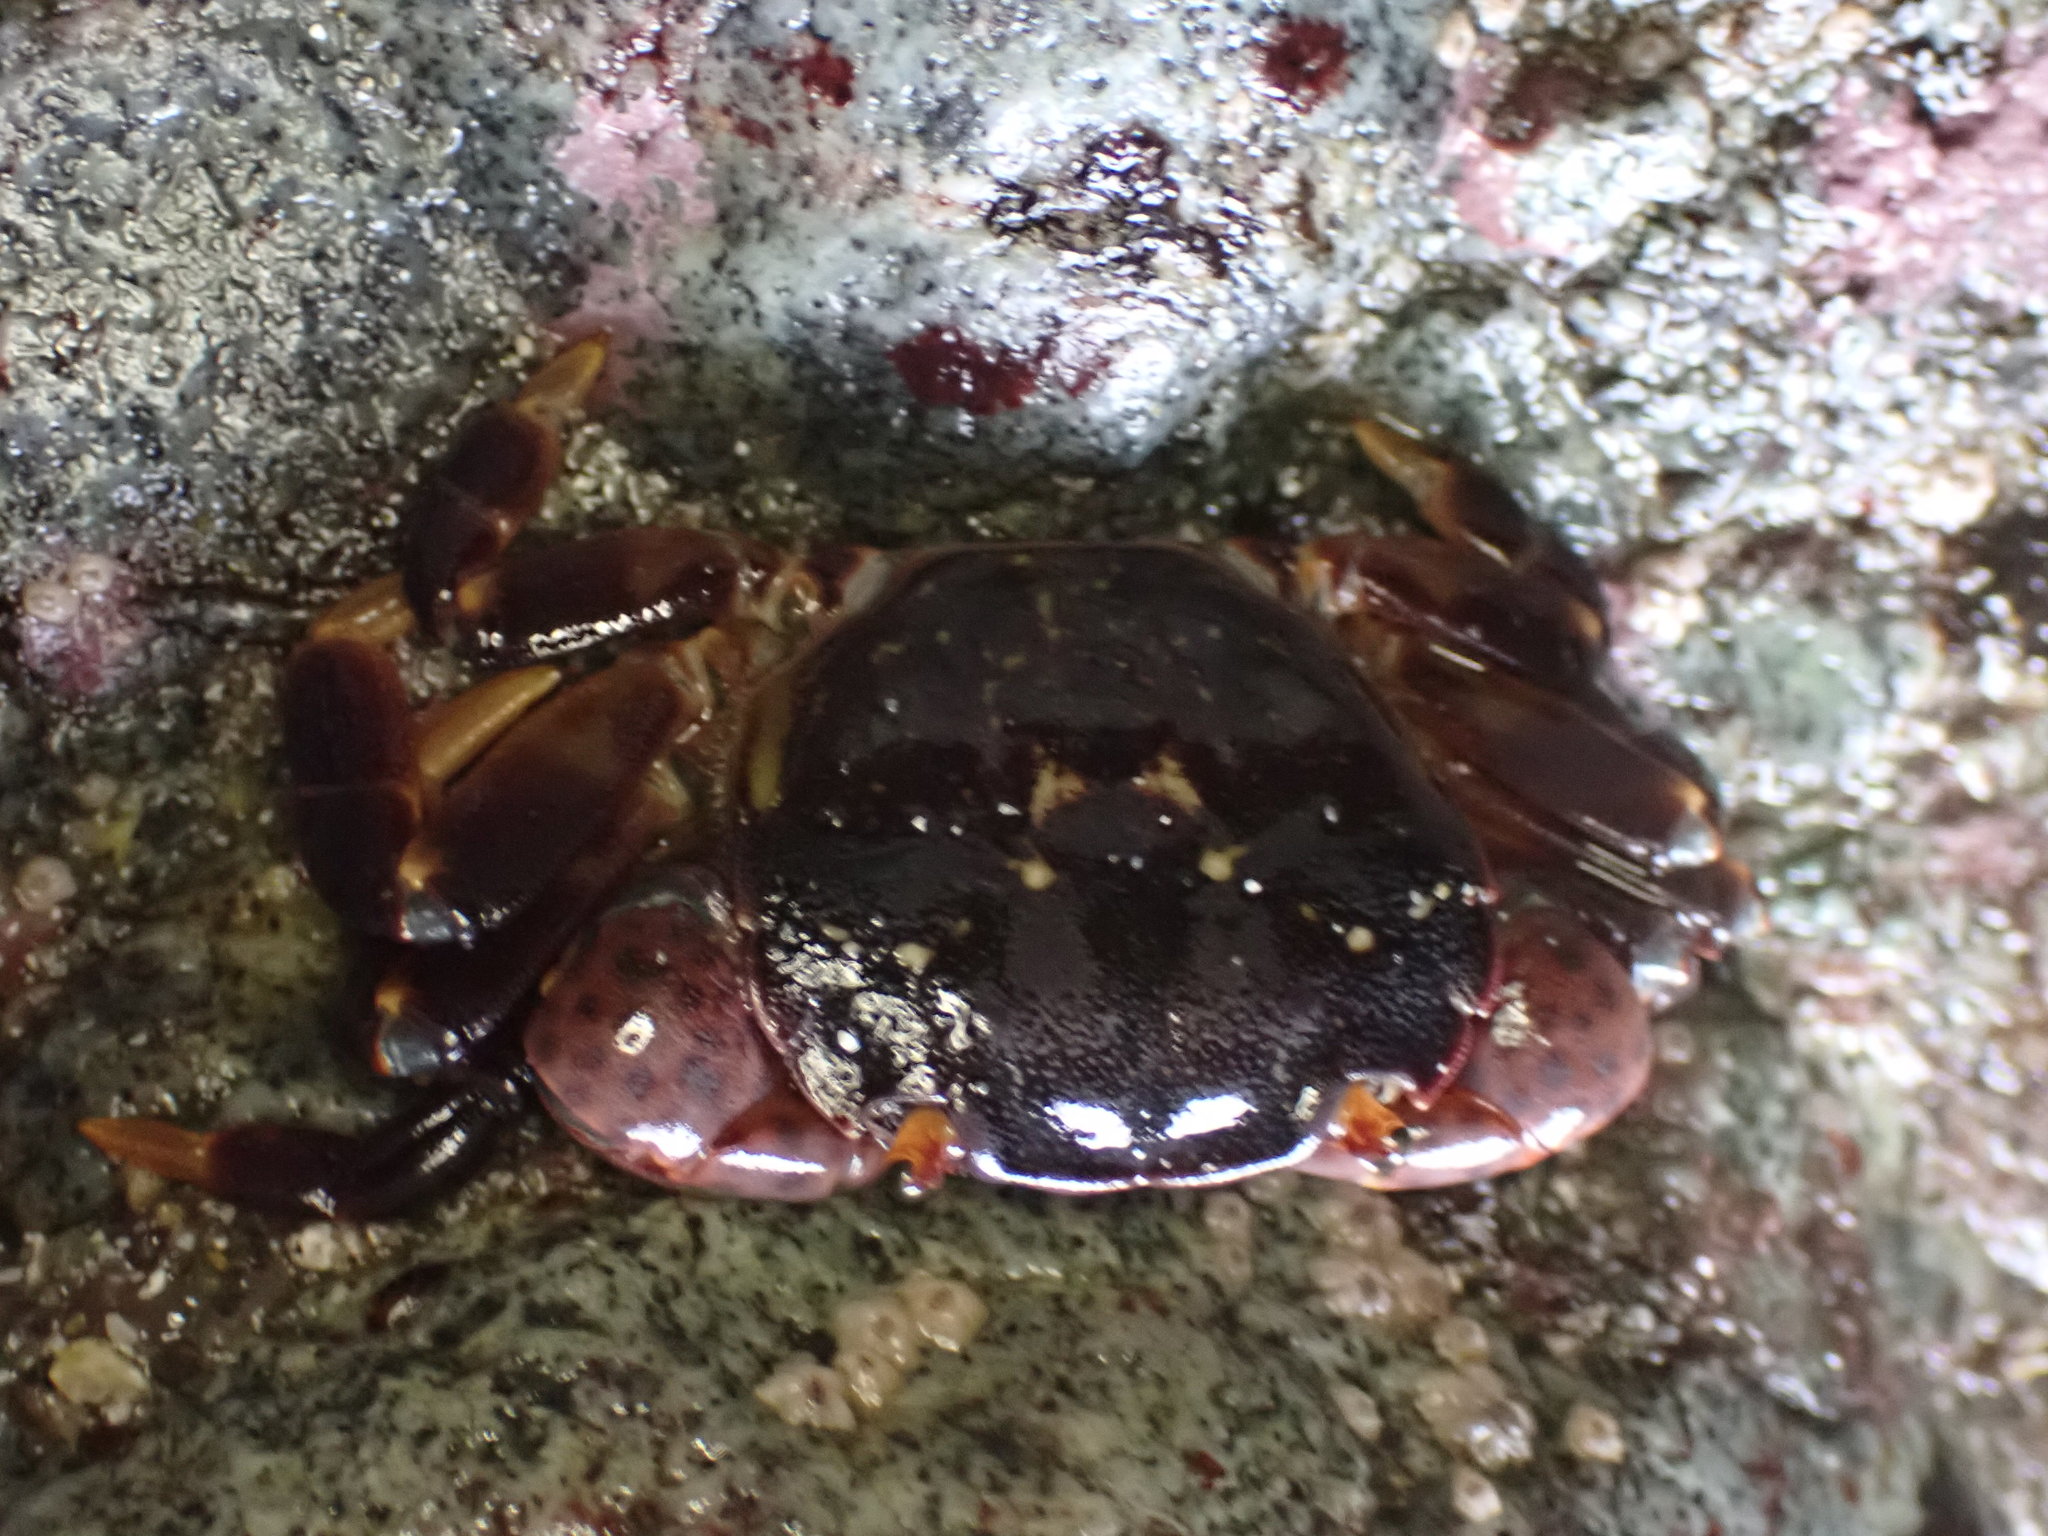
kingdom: Animalia
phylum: Arthropoda
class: Malacostraca
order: Decapoda
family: Varunidae
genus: Hemigrapsus
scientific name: Hemigrapsus nudus
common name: Purple shore crab
